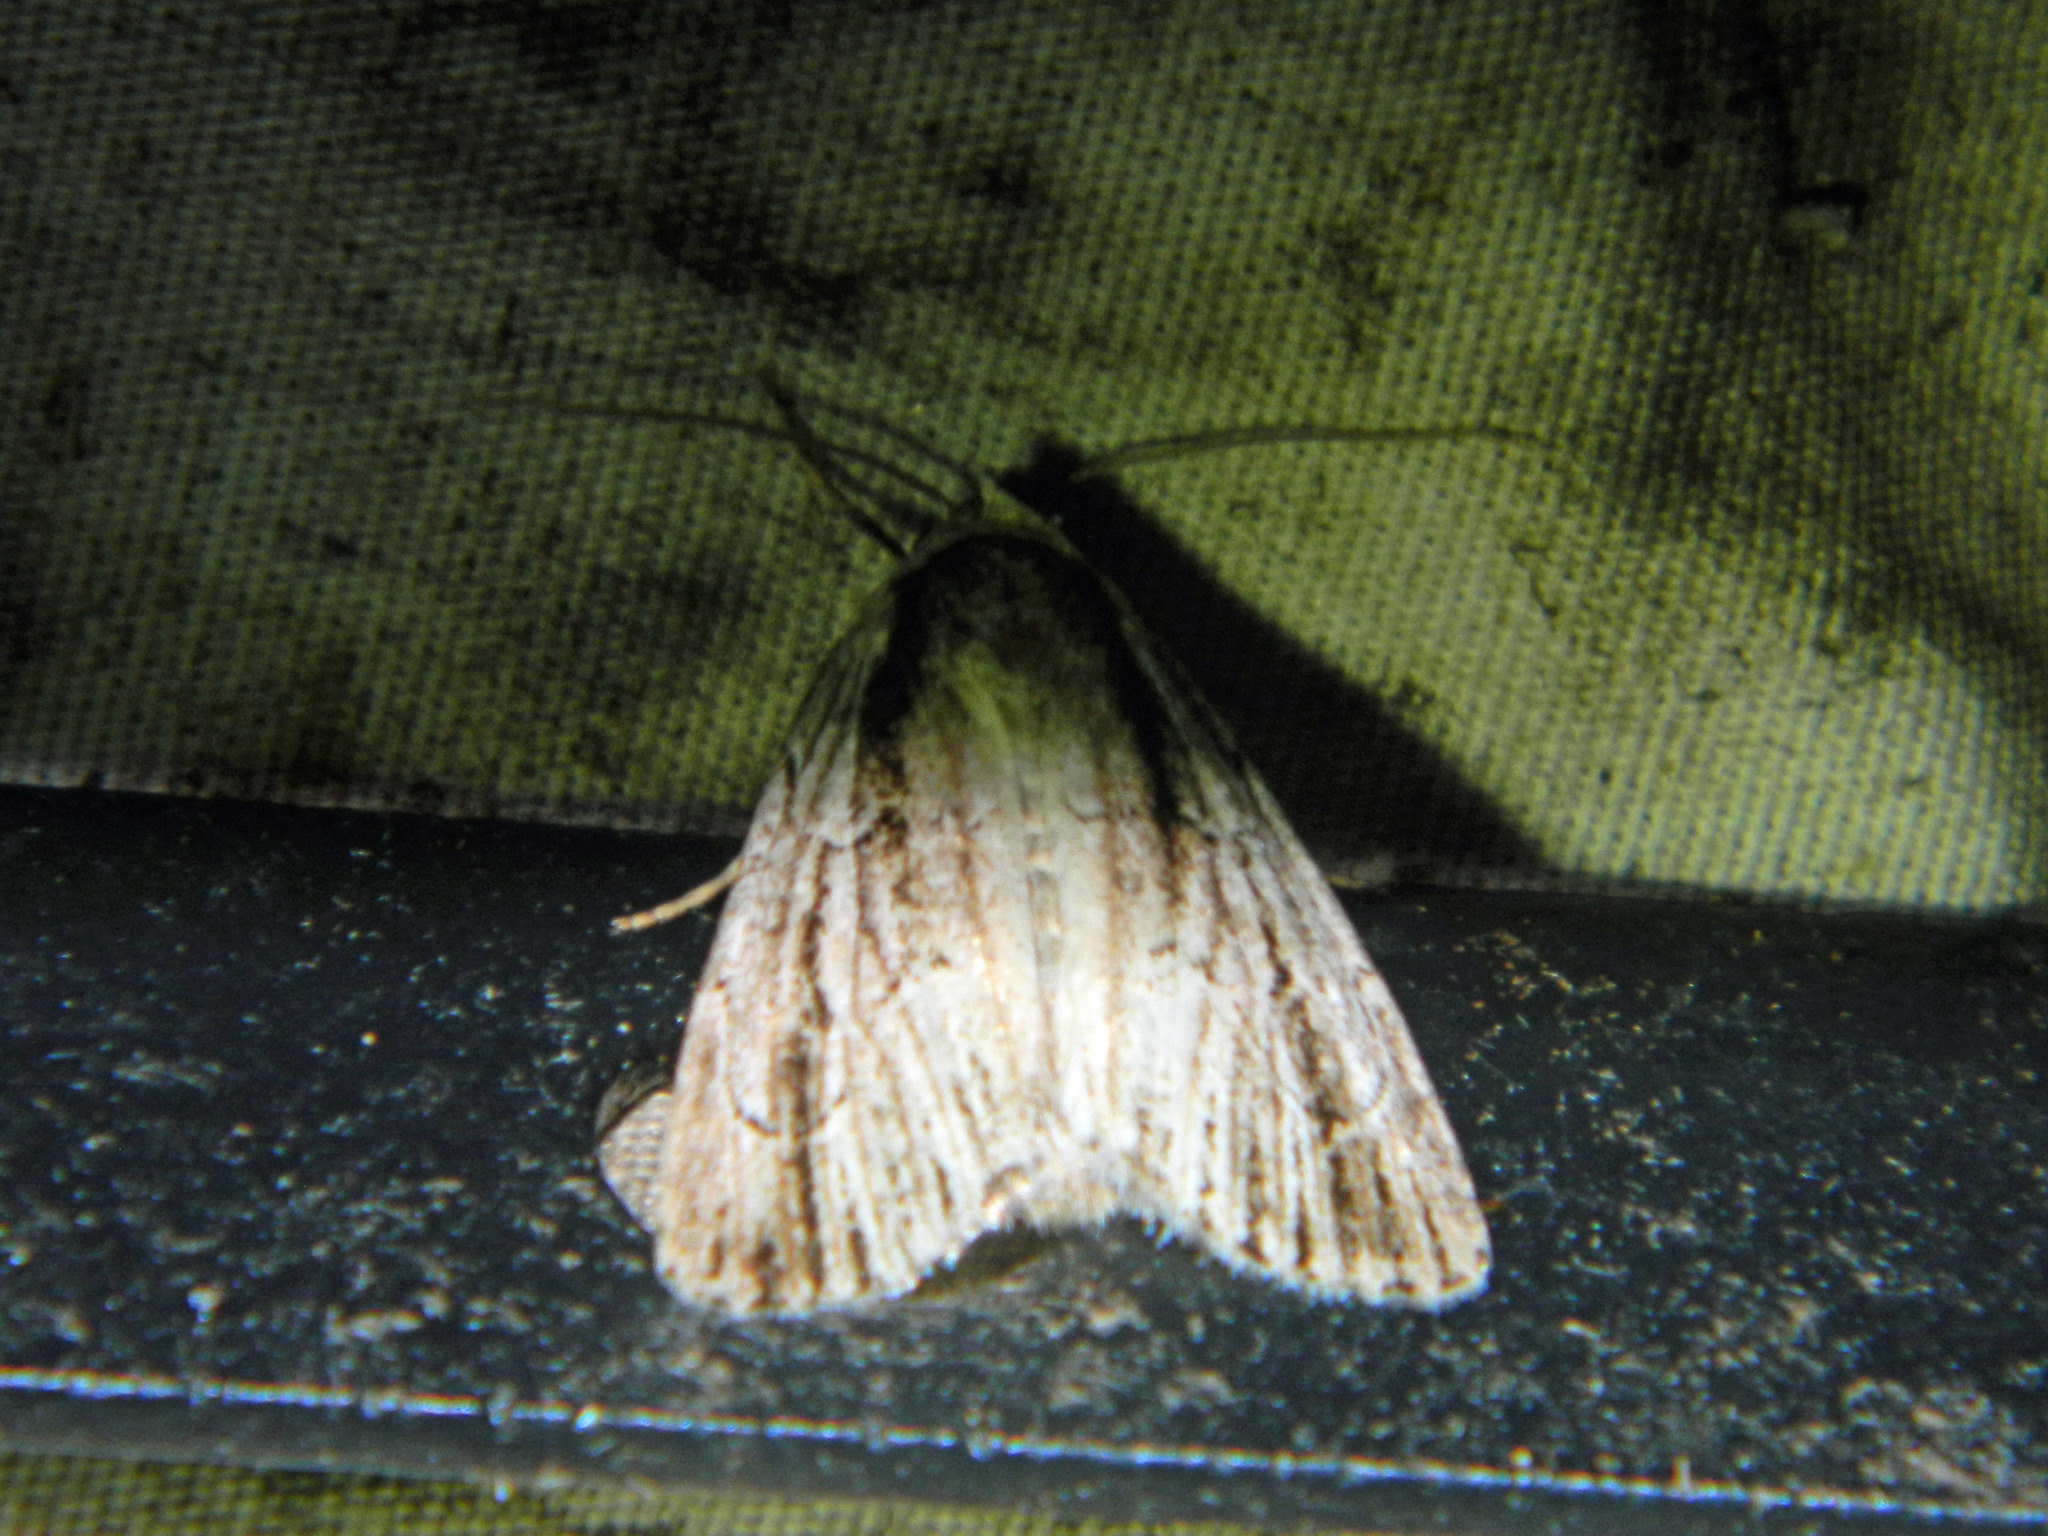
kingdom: Animalia
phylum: Arthropoda
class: Insecta
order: Lepidoptera
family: Noctuidae
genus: Sympistis
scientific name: Sympistis badistriga
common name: Brown-lined sallow moth
